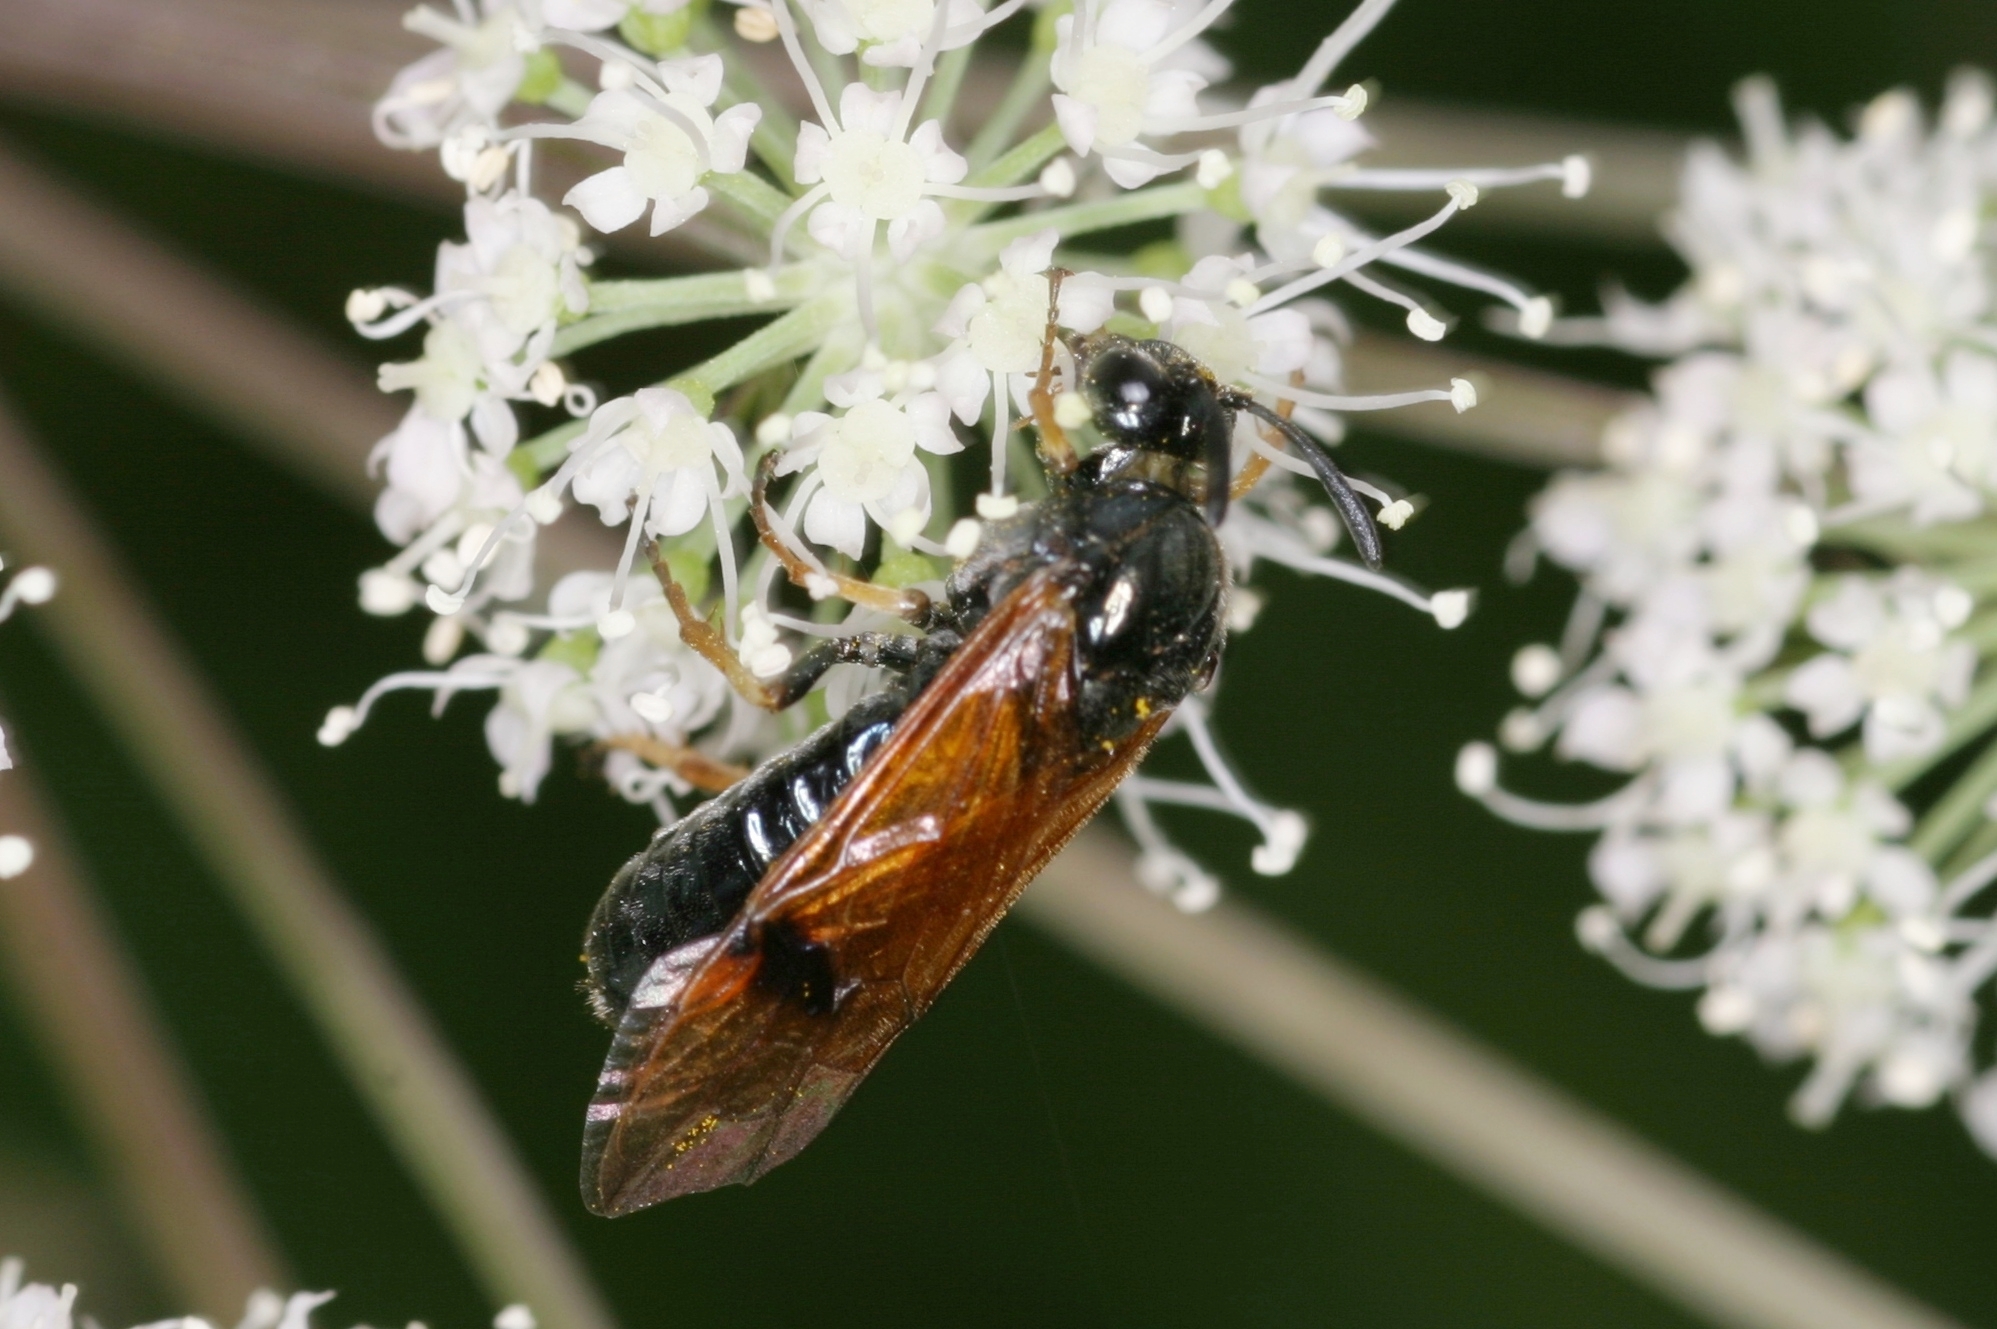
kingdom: Animalia
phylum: Arthropoda
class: Insecta
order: Hymenoptera
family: Argidae
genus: Arge
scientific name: Arge ustulata
